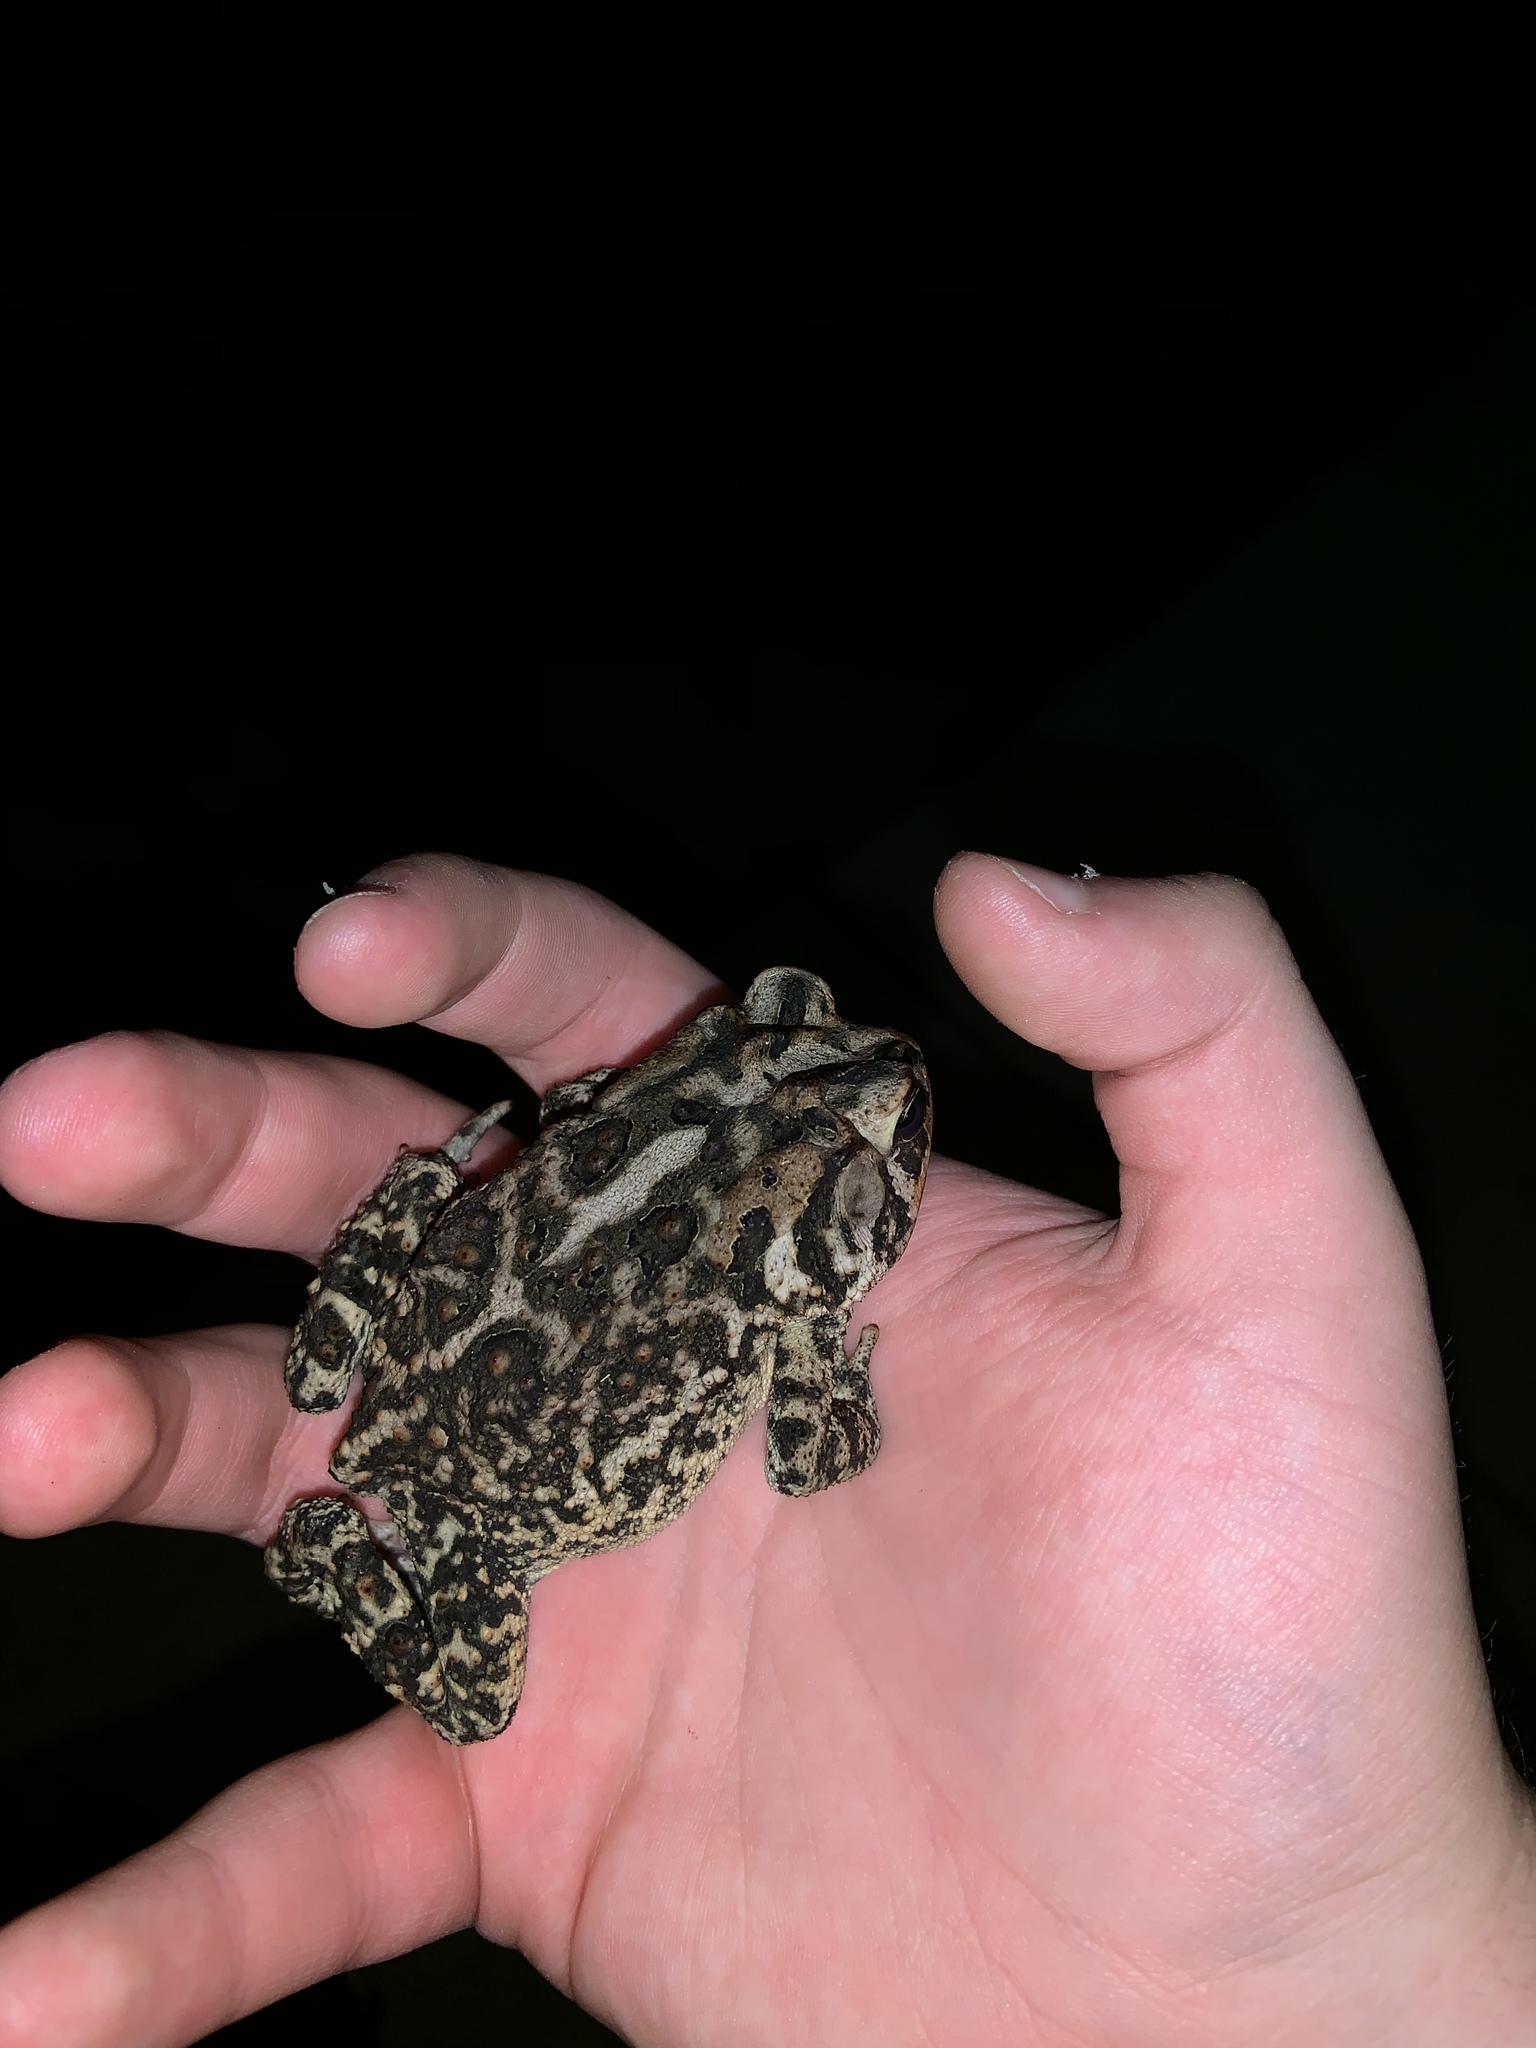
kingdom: Animalia
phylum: Chordata
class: Amphibia
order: Anura
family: Bufonidae
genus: Anaxyrus
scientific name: Anaxyrus terrestris
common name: Southern toad
